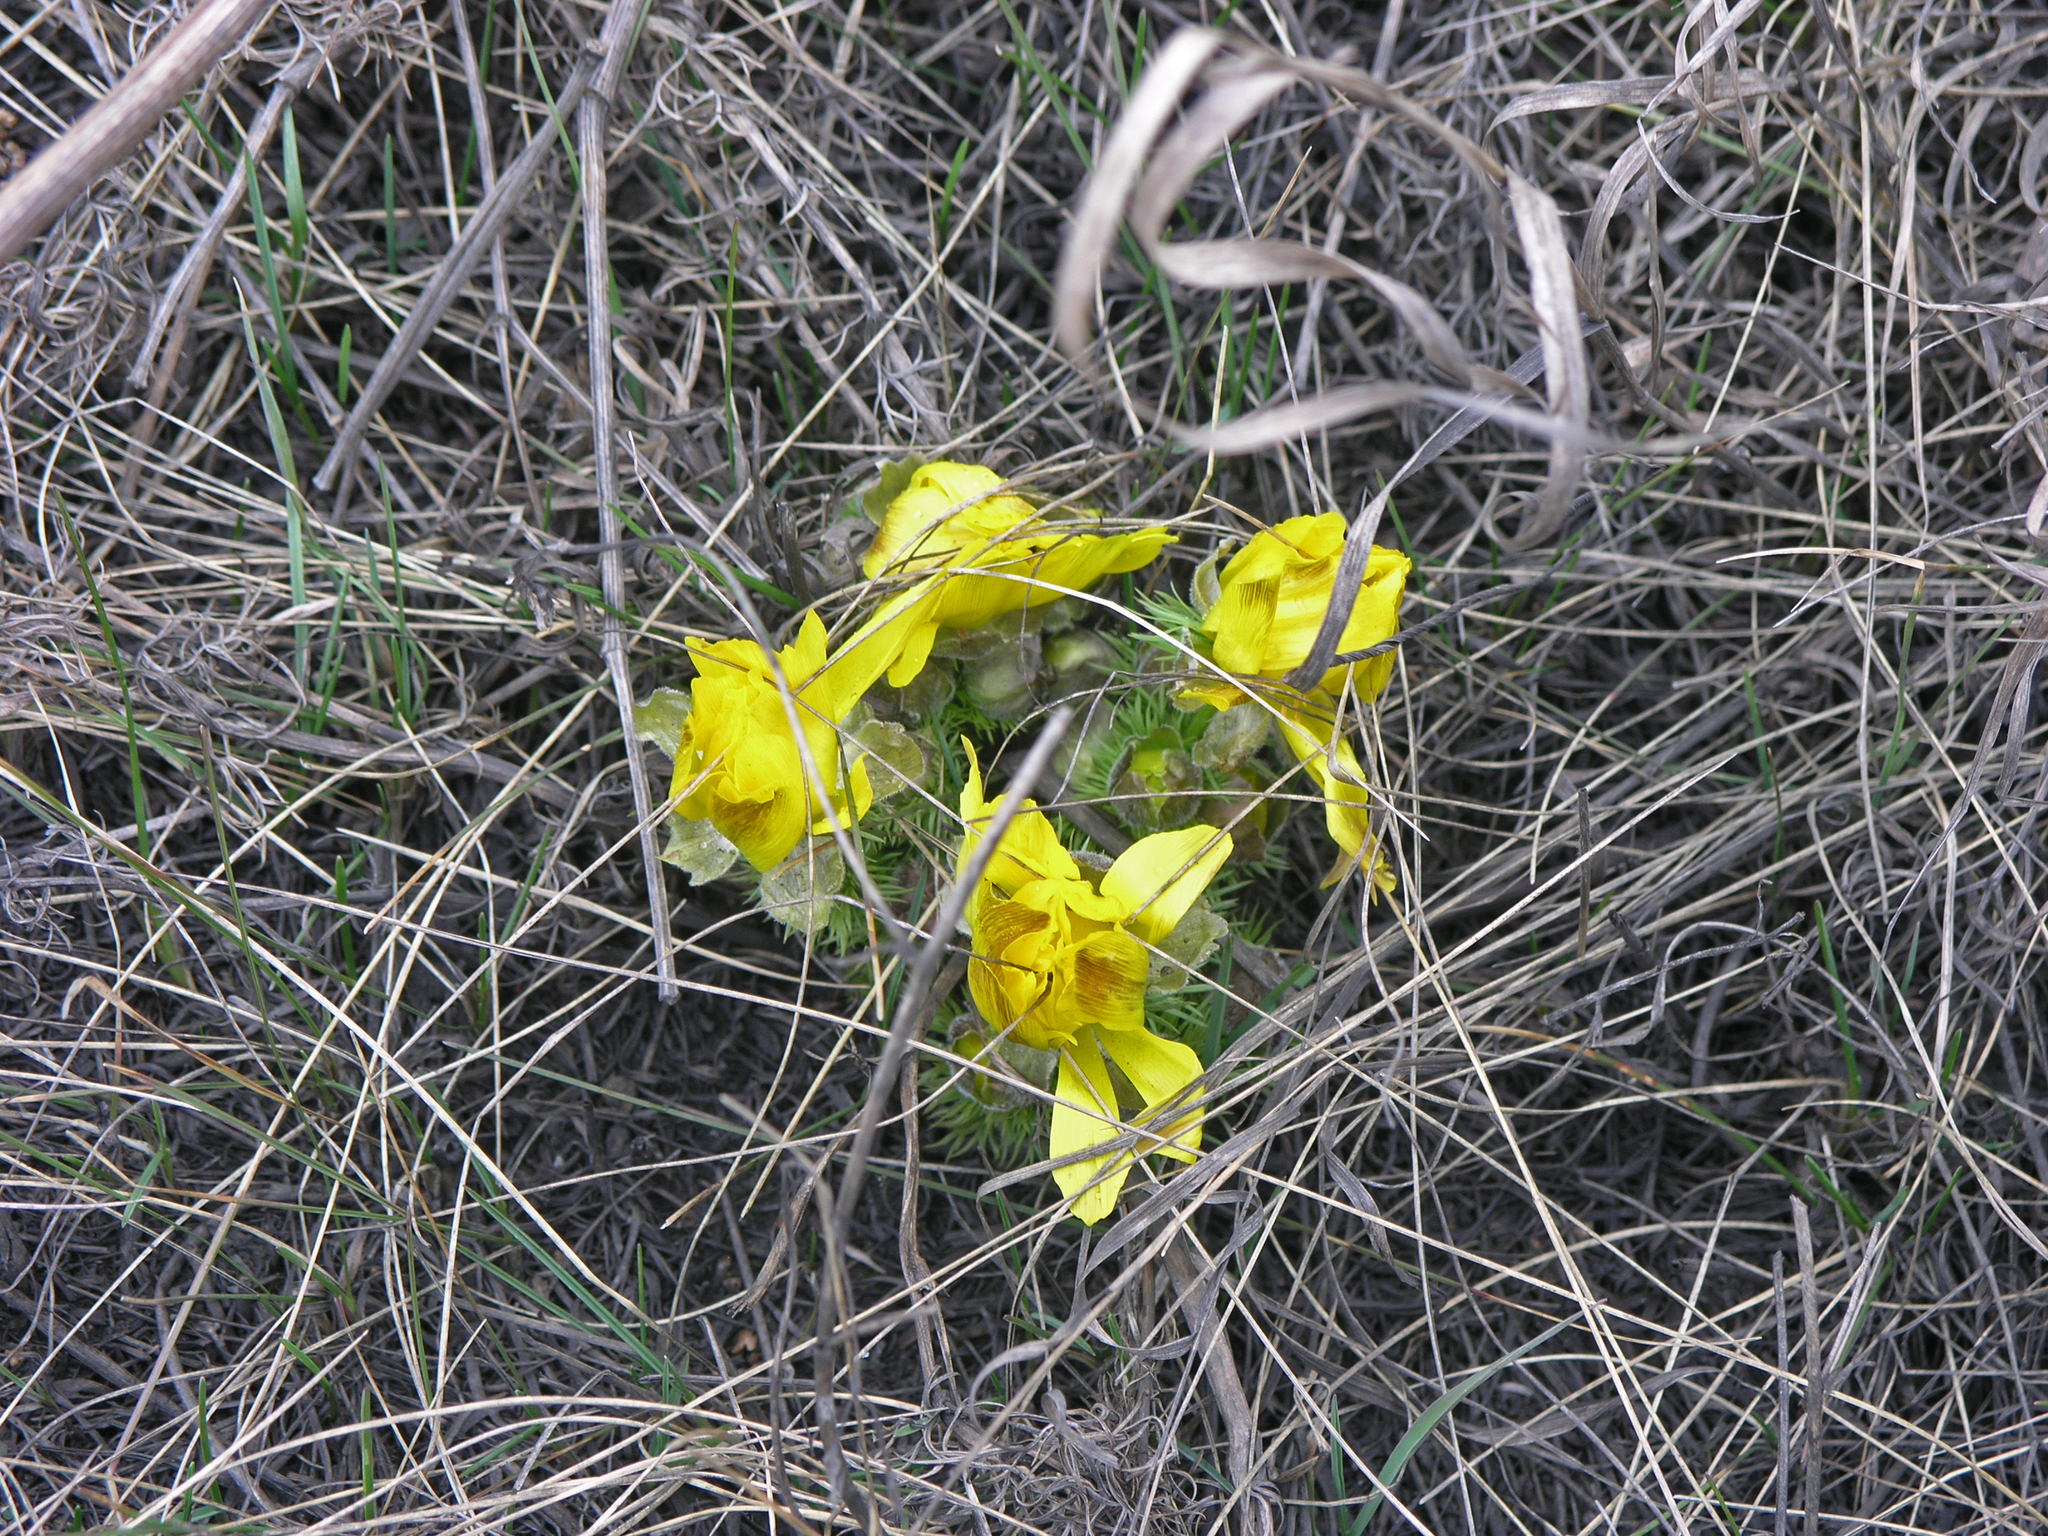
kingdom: Plantae
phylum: Tracheophyta
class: Magnoliopsida
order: Ranunculales
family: Ranunculaceae
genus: Adonis
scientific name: Adonis vernalis
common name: Yellow pheasants-eye
